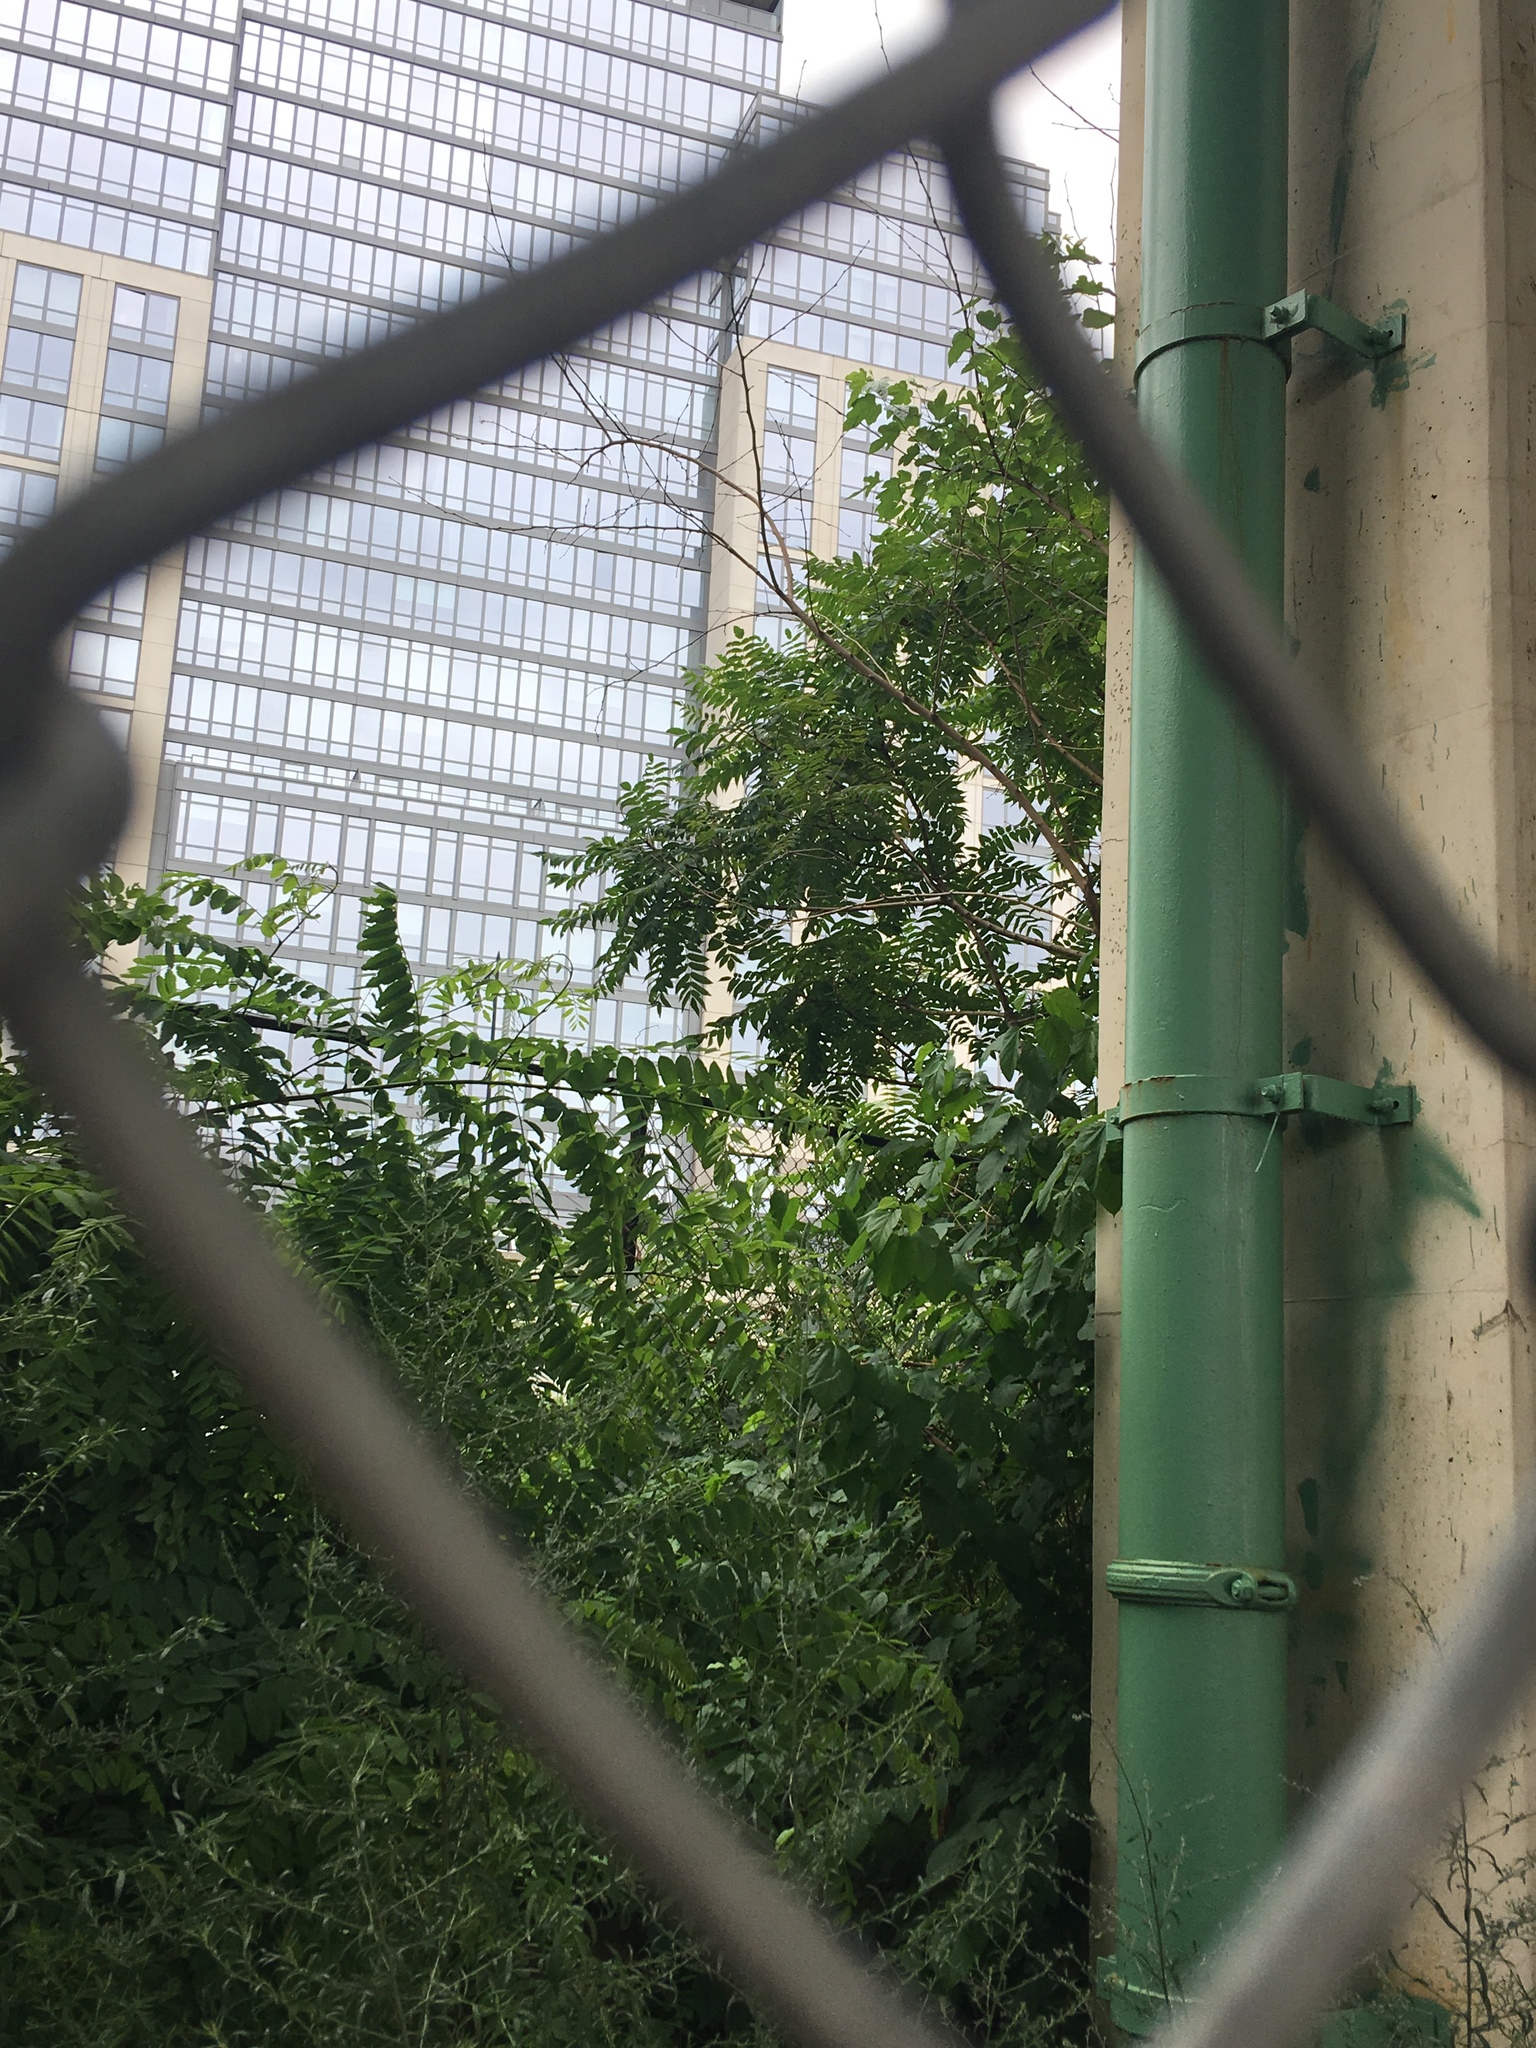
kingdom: Plantae
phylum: Tracheophyta
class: Magnoliopsida
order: Sapindales
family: Anacardiaceae
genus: Rhus
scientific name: Rhus typhina
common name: Staghorn sumac
